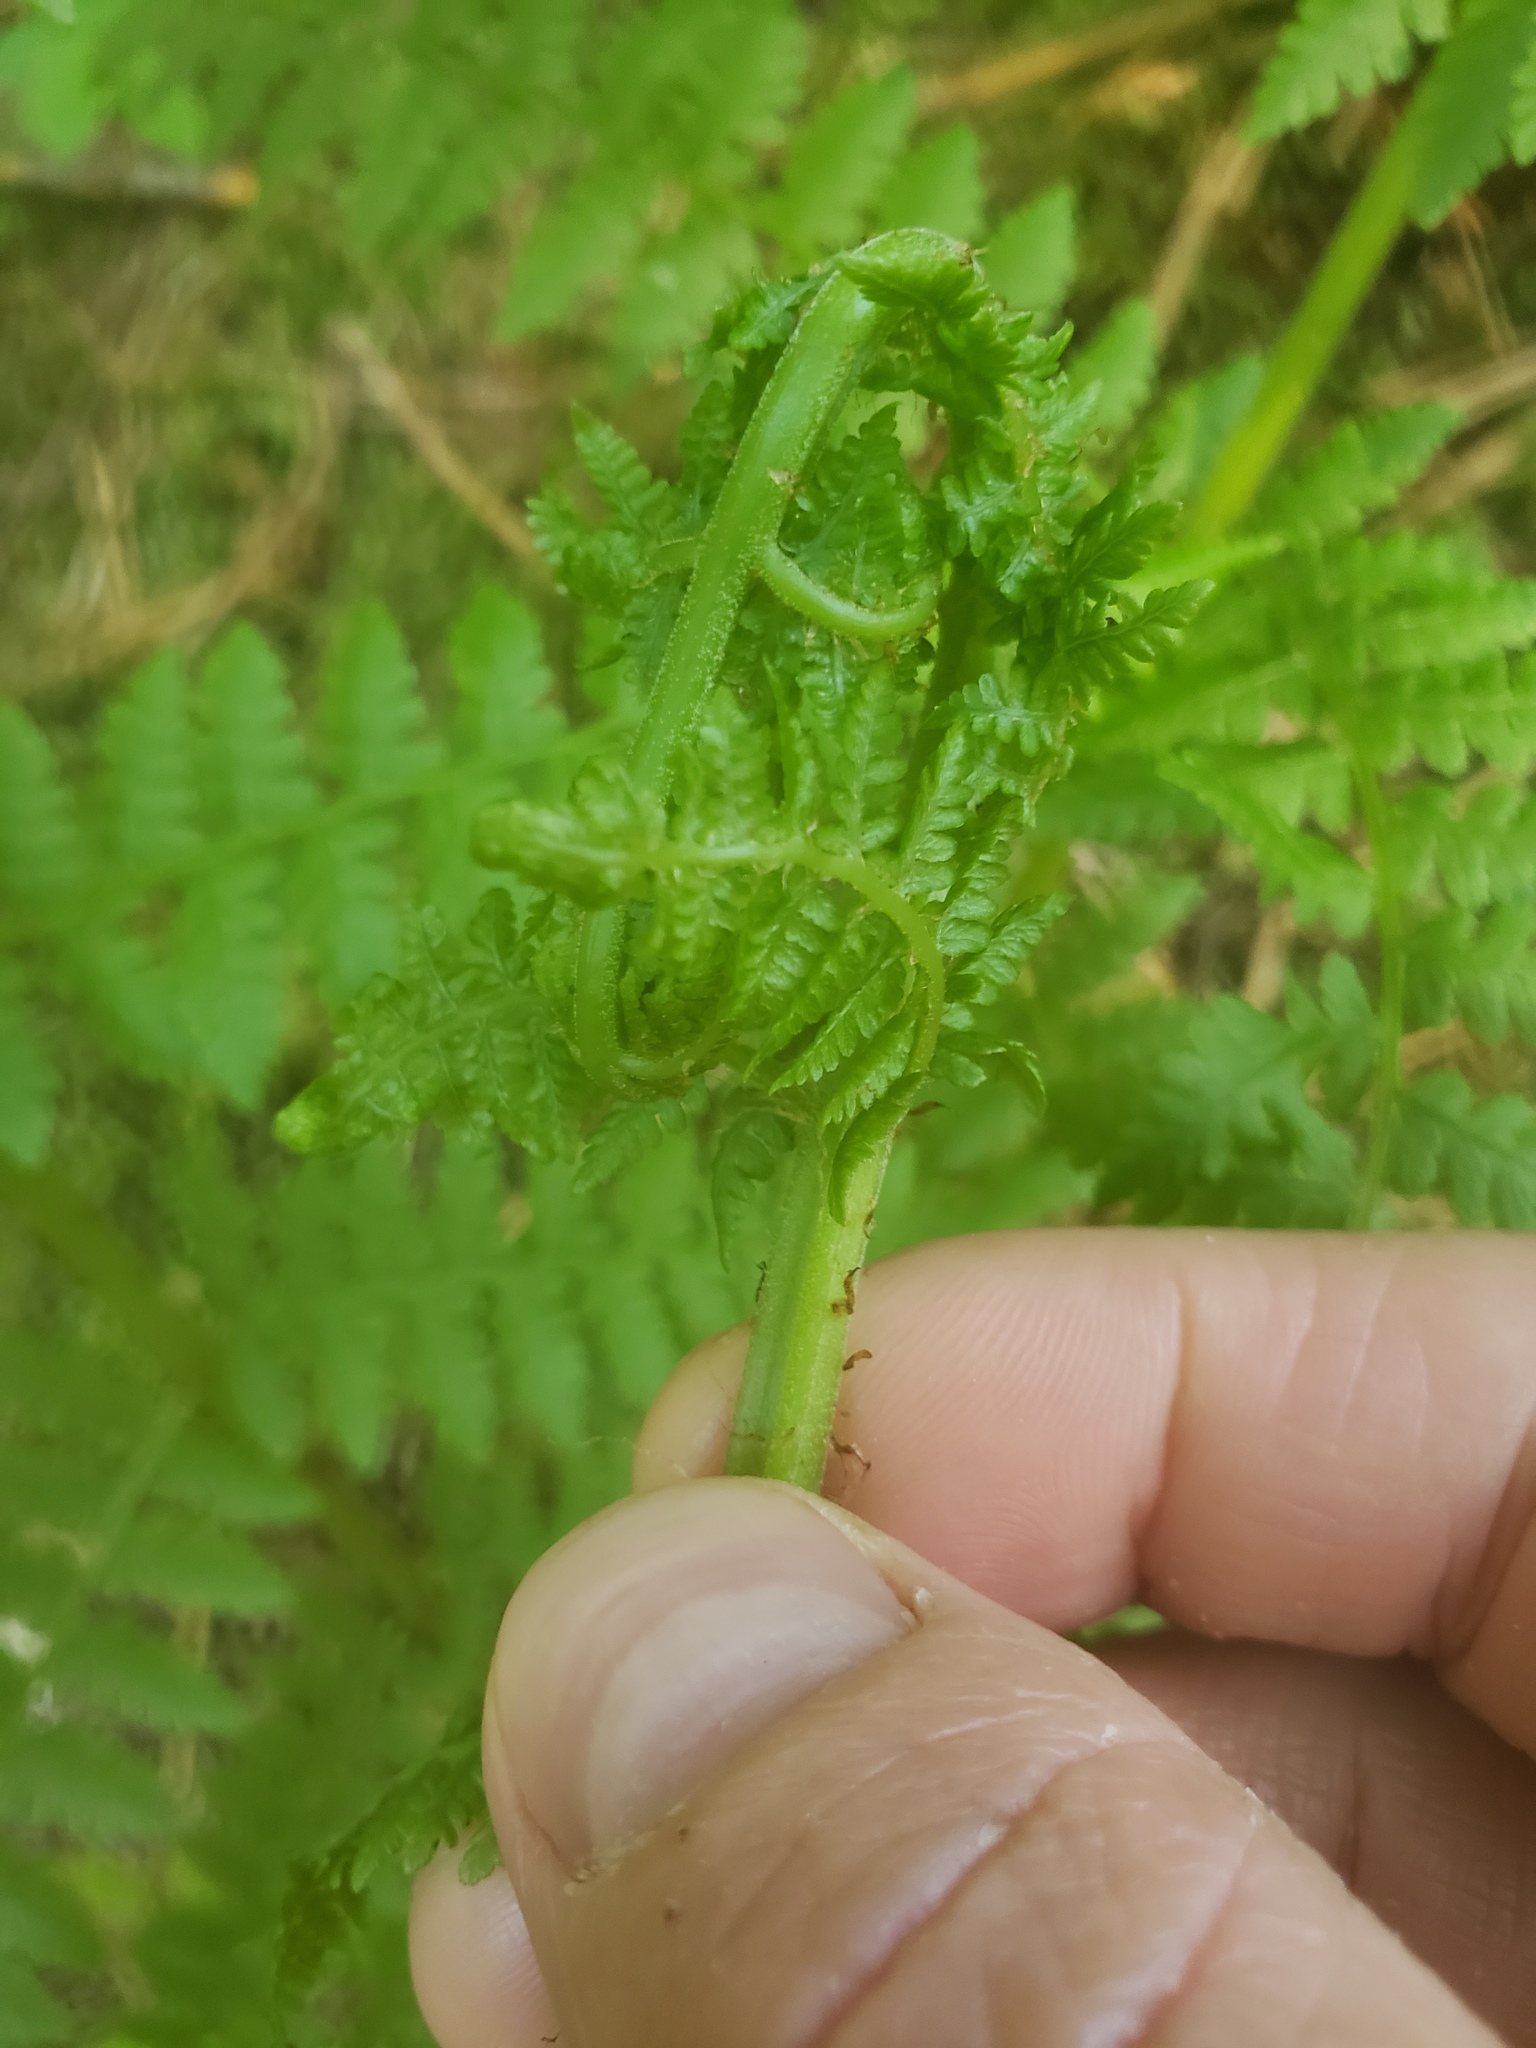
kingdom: Plantae
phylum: Tracheophyta
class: Polypodiopsida
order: Polypodiales
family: Athyriaceae
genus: Athyrium
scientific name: Athyrium filix-femina
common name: Lady fern
